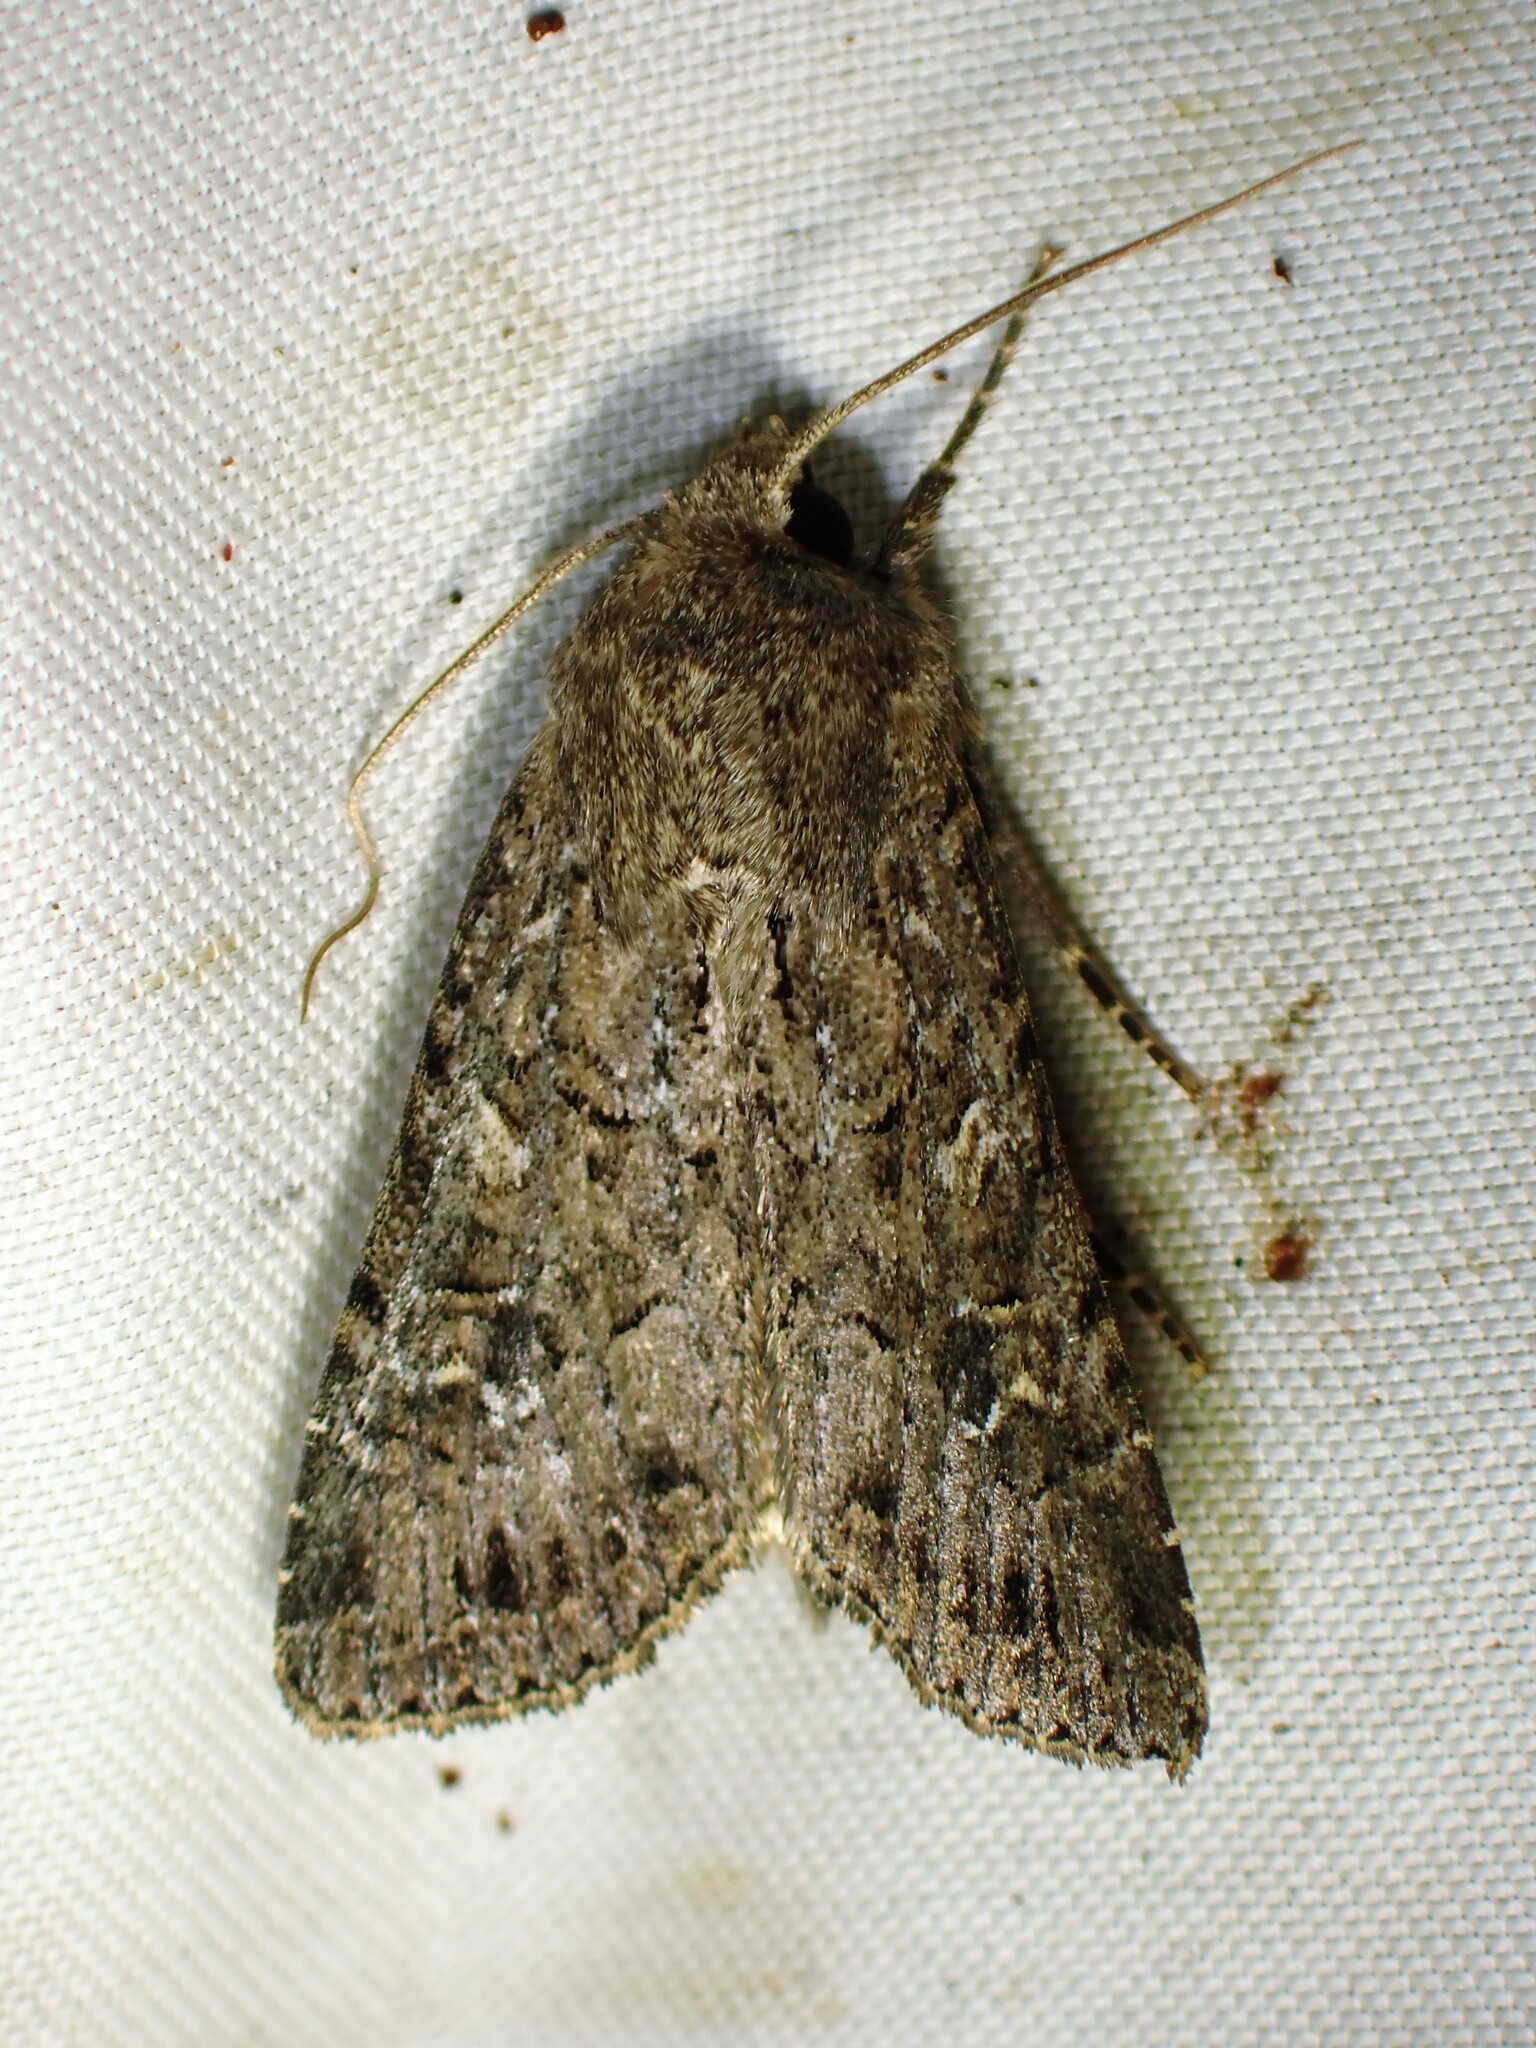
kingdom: Animalia
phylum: Arthropoda
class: Insecta
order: Lepidoptera
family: Noctuidae
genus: Apamea
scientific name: Apamea devastator
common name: Glassy cutworm
